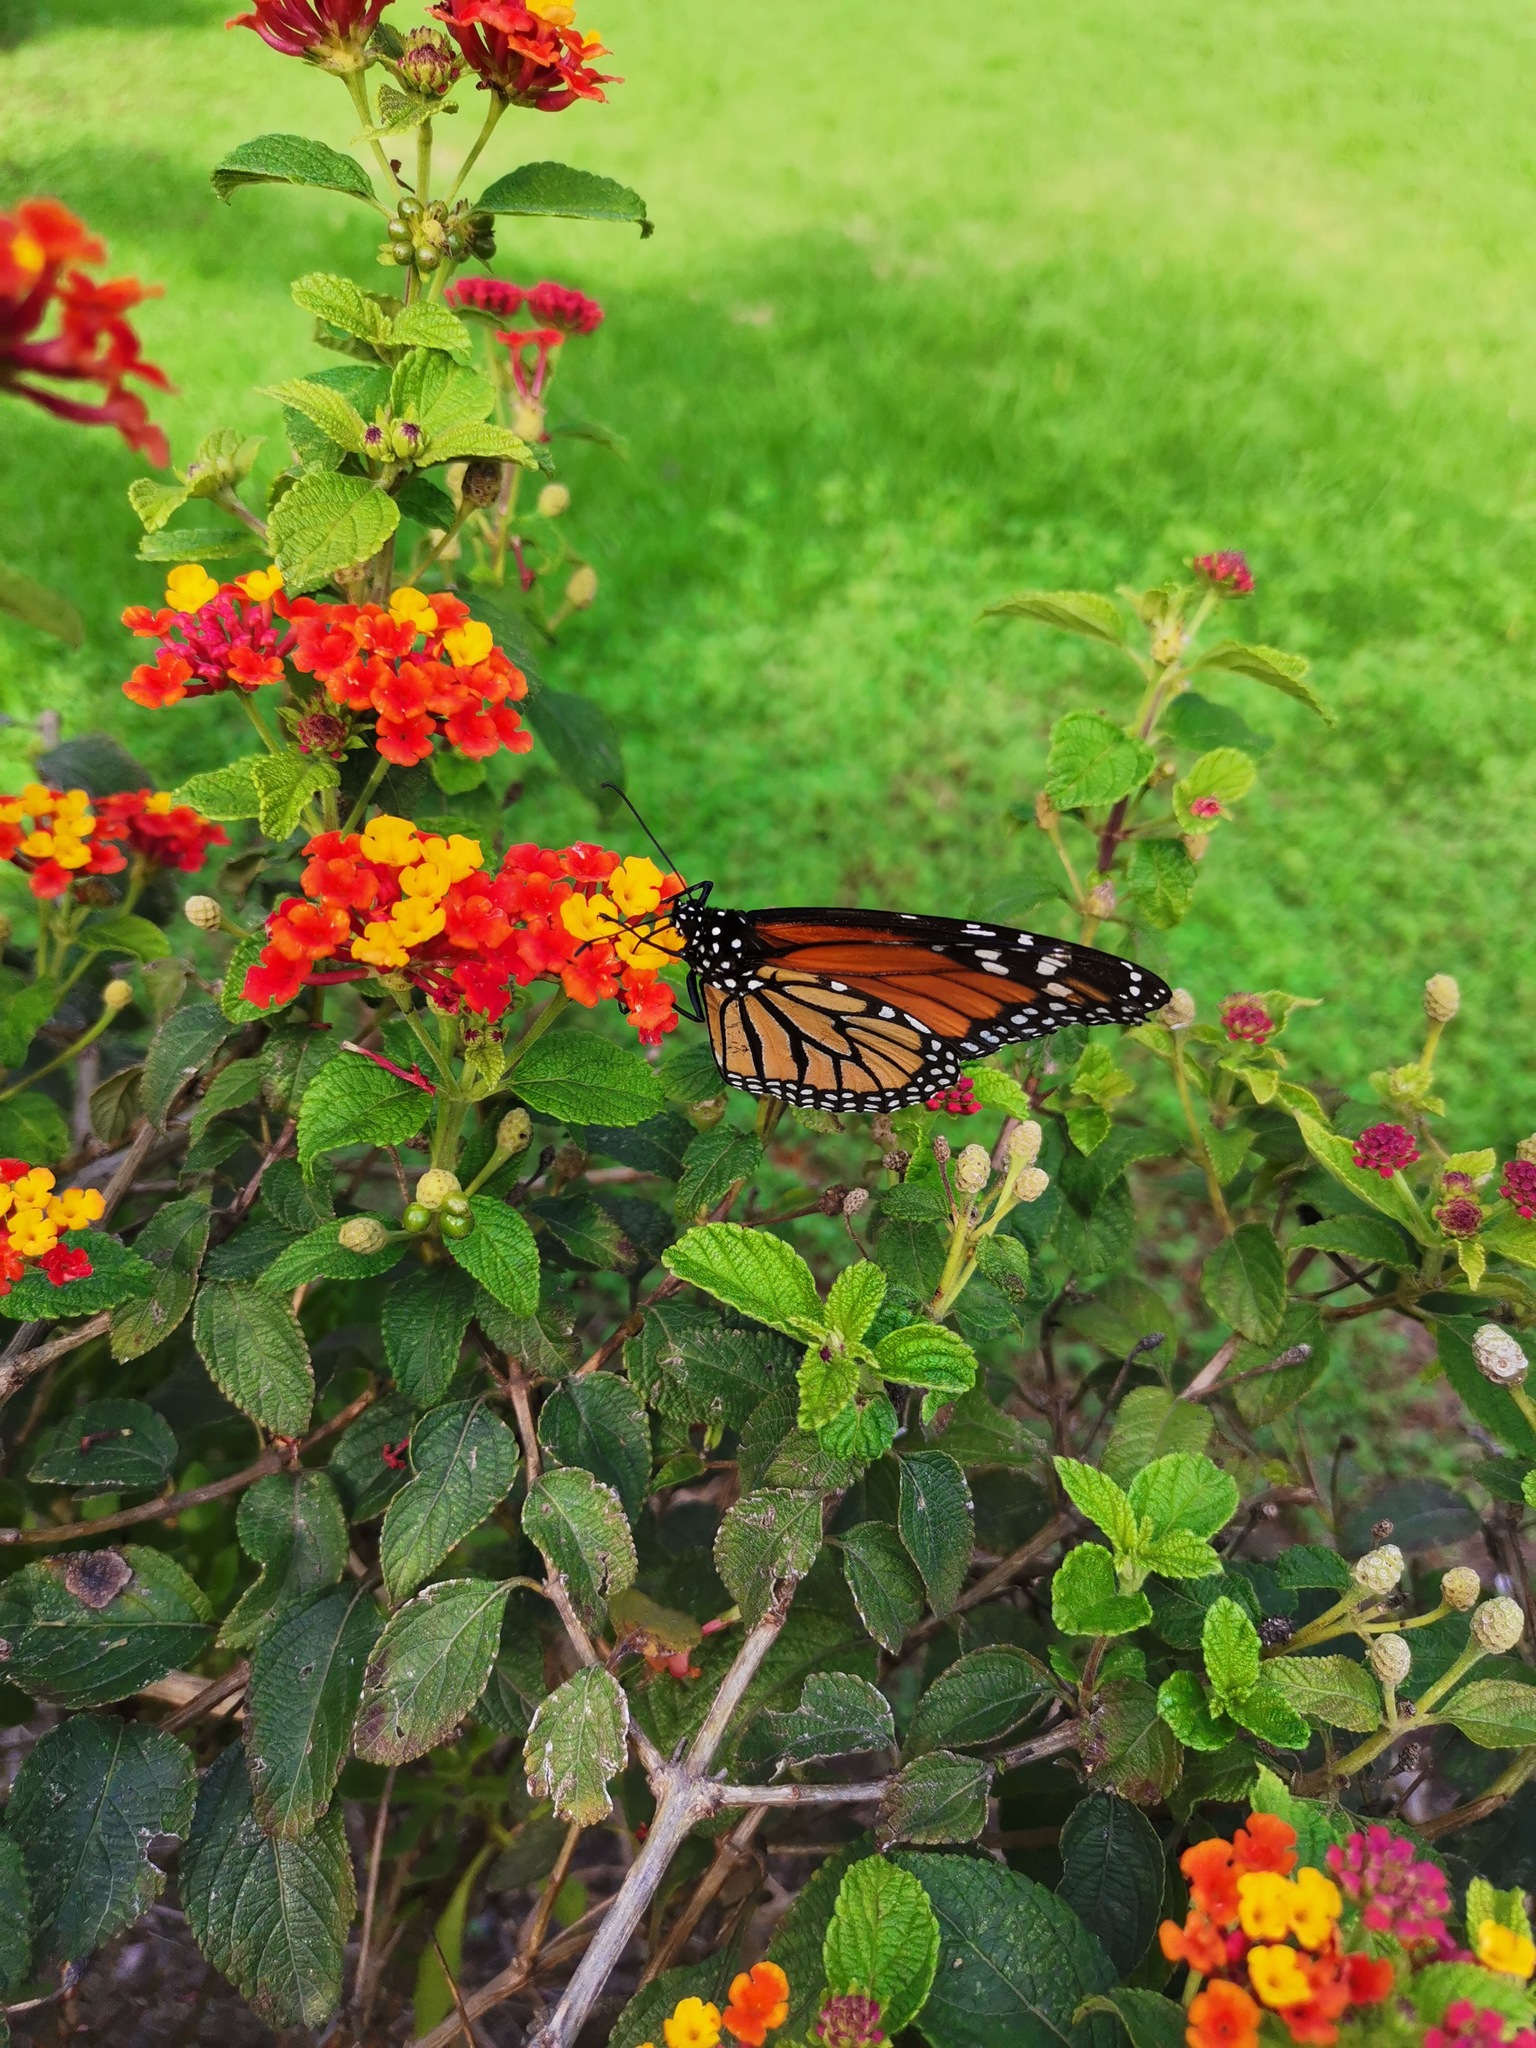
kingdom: Animalia
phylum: Arthropoda
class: Insecta
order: Lepidoptera
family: Nymphalidae
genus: Danaus
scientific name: Danaus plexippus
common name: Monarch
